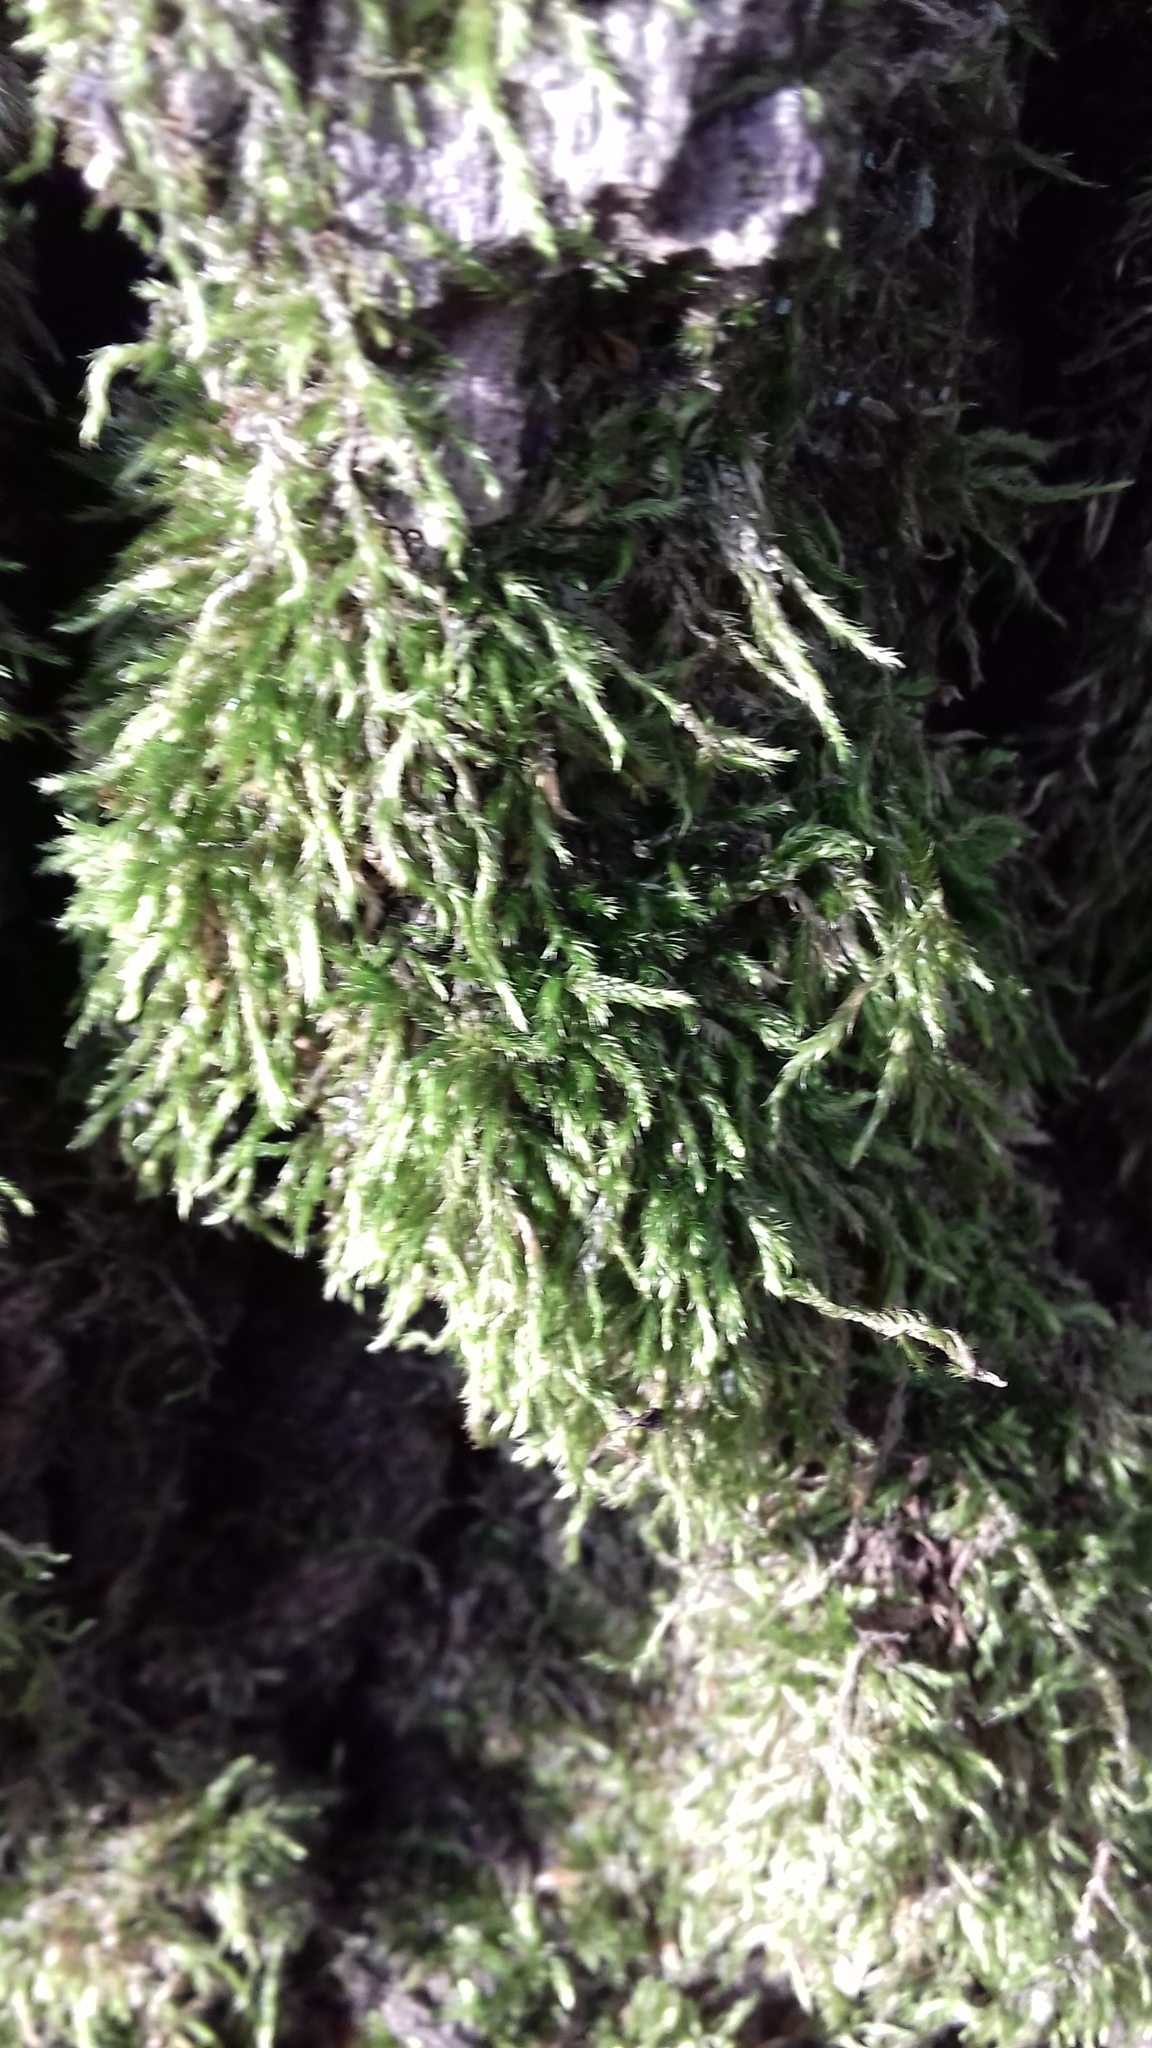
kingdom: Plantae
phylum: Bryophyta
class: Bryopsida
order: Hypnales
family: Hypnaceae
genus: Hypnum
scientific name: Hypnum cupressiforme
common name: Cypress-leaved plait-moss
